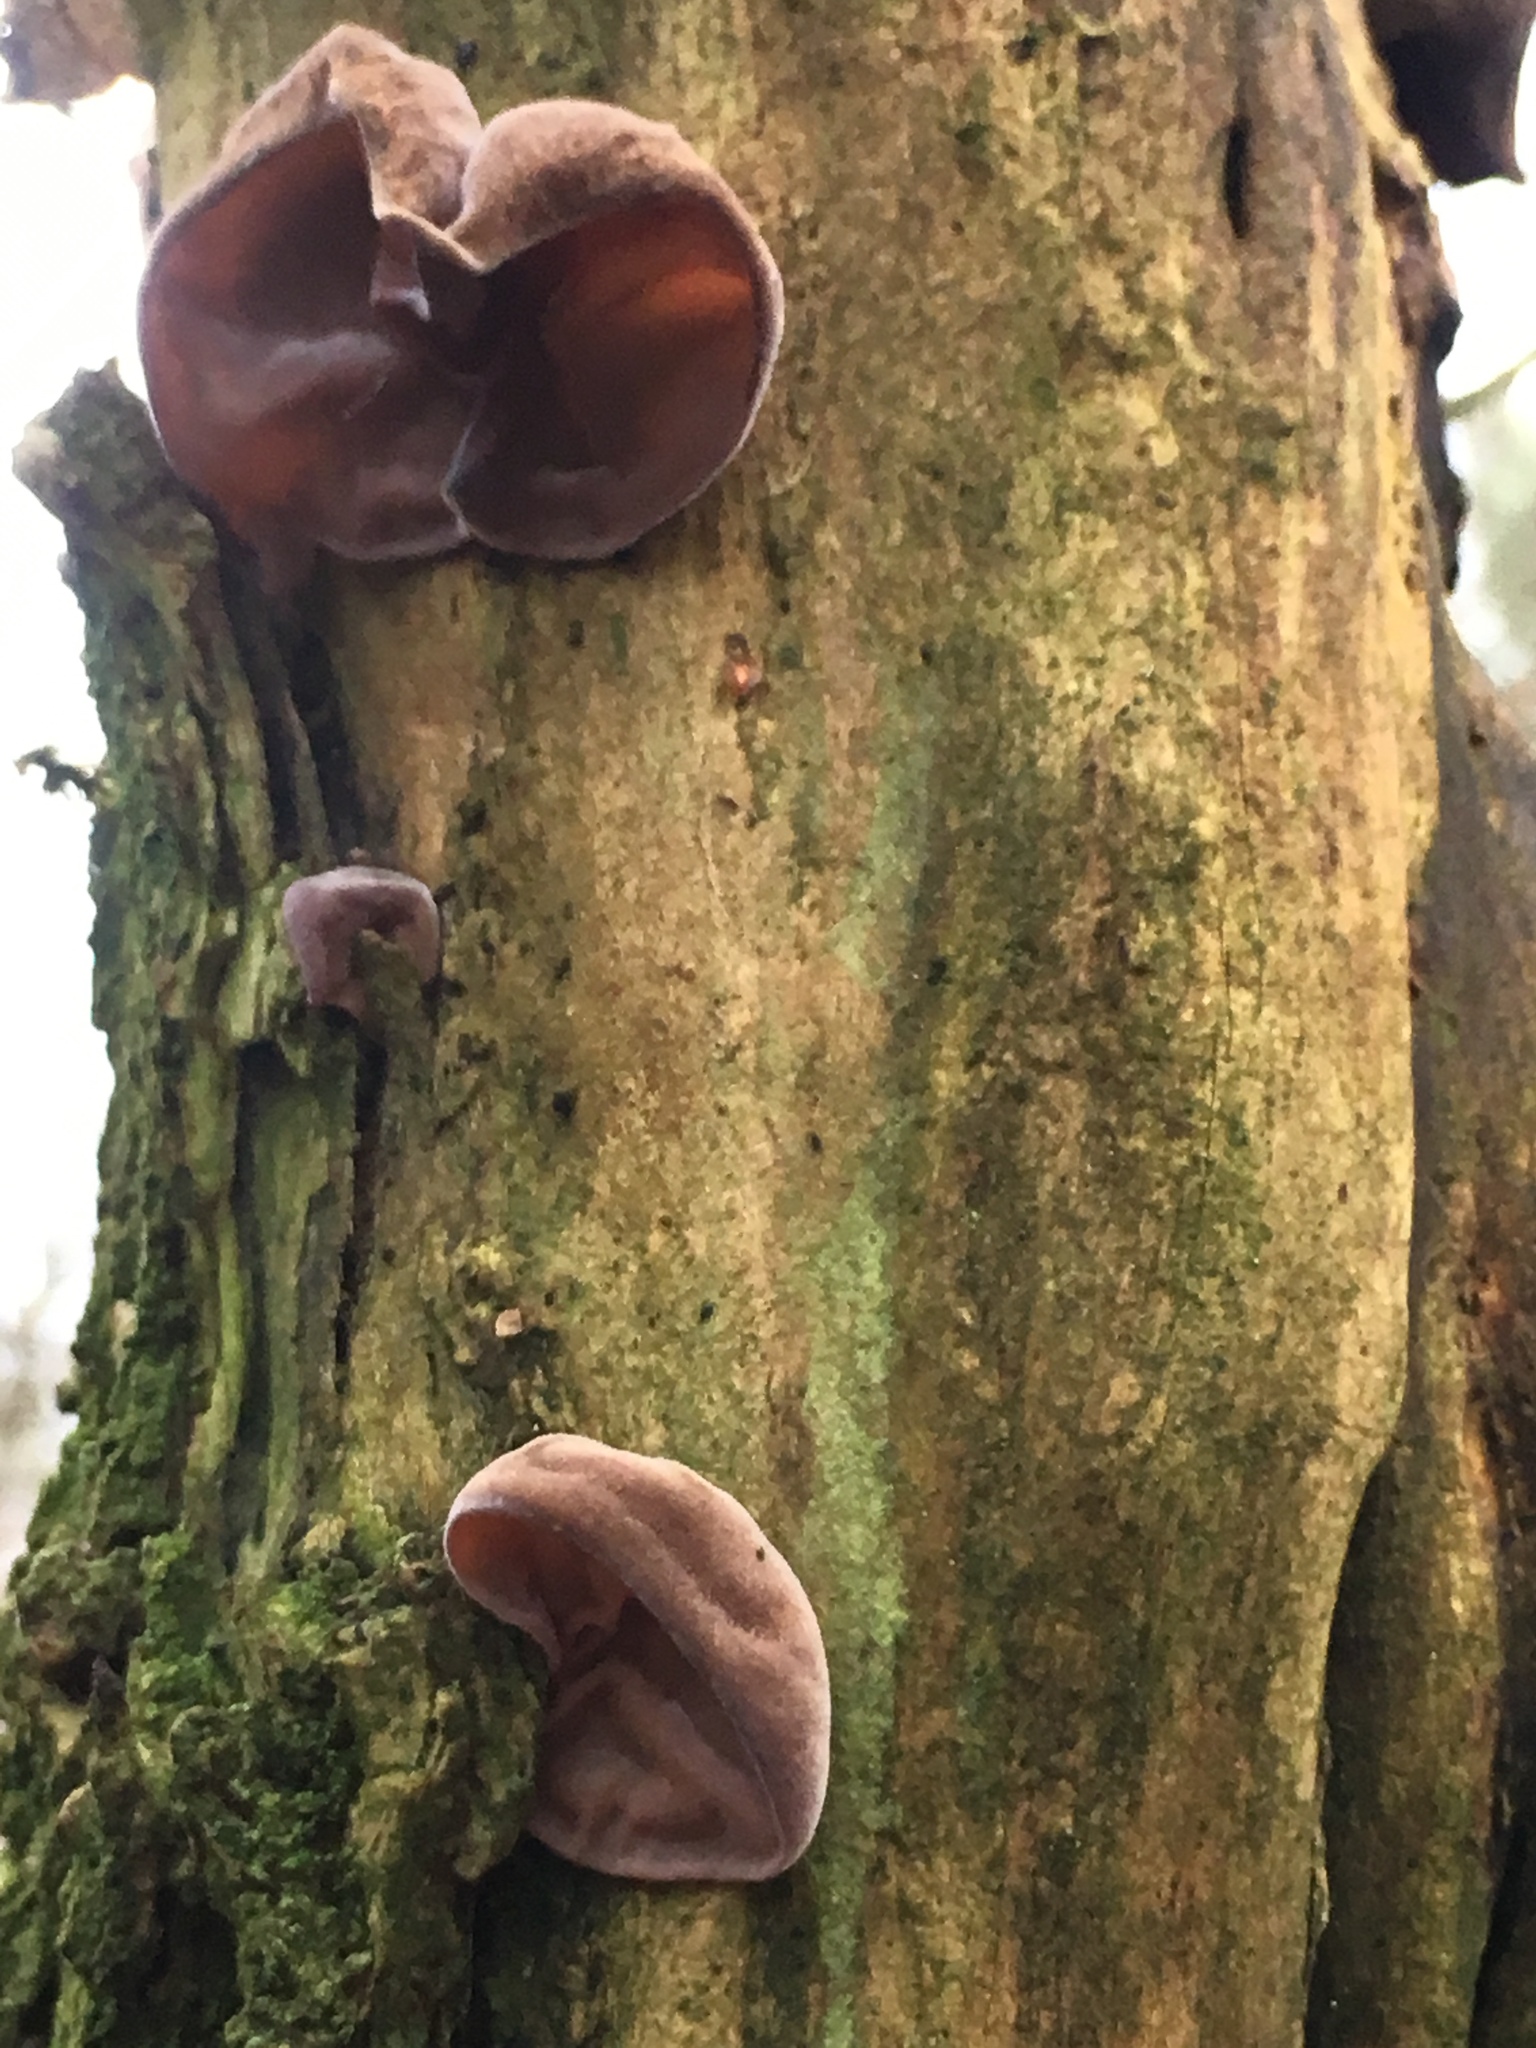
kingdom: Fungi
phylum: Basidiomycota
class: Agaricomycetes
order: Auriculariales
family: Auriculariaceae
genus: Auricularia
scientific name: Auricularia auricula-judae
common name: Jelly ear
